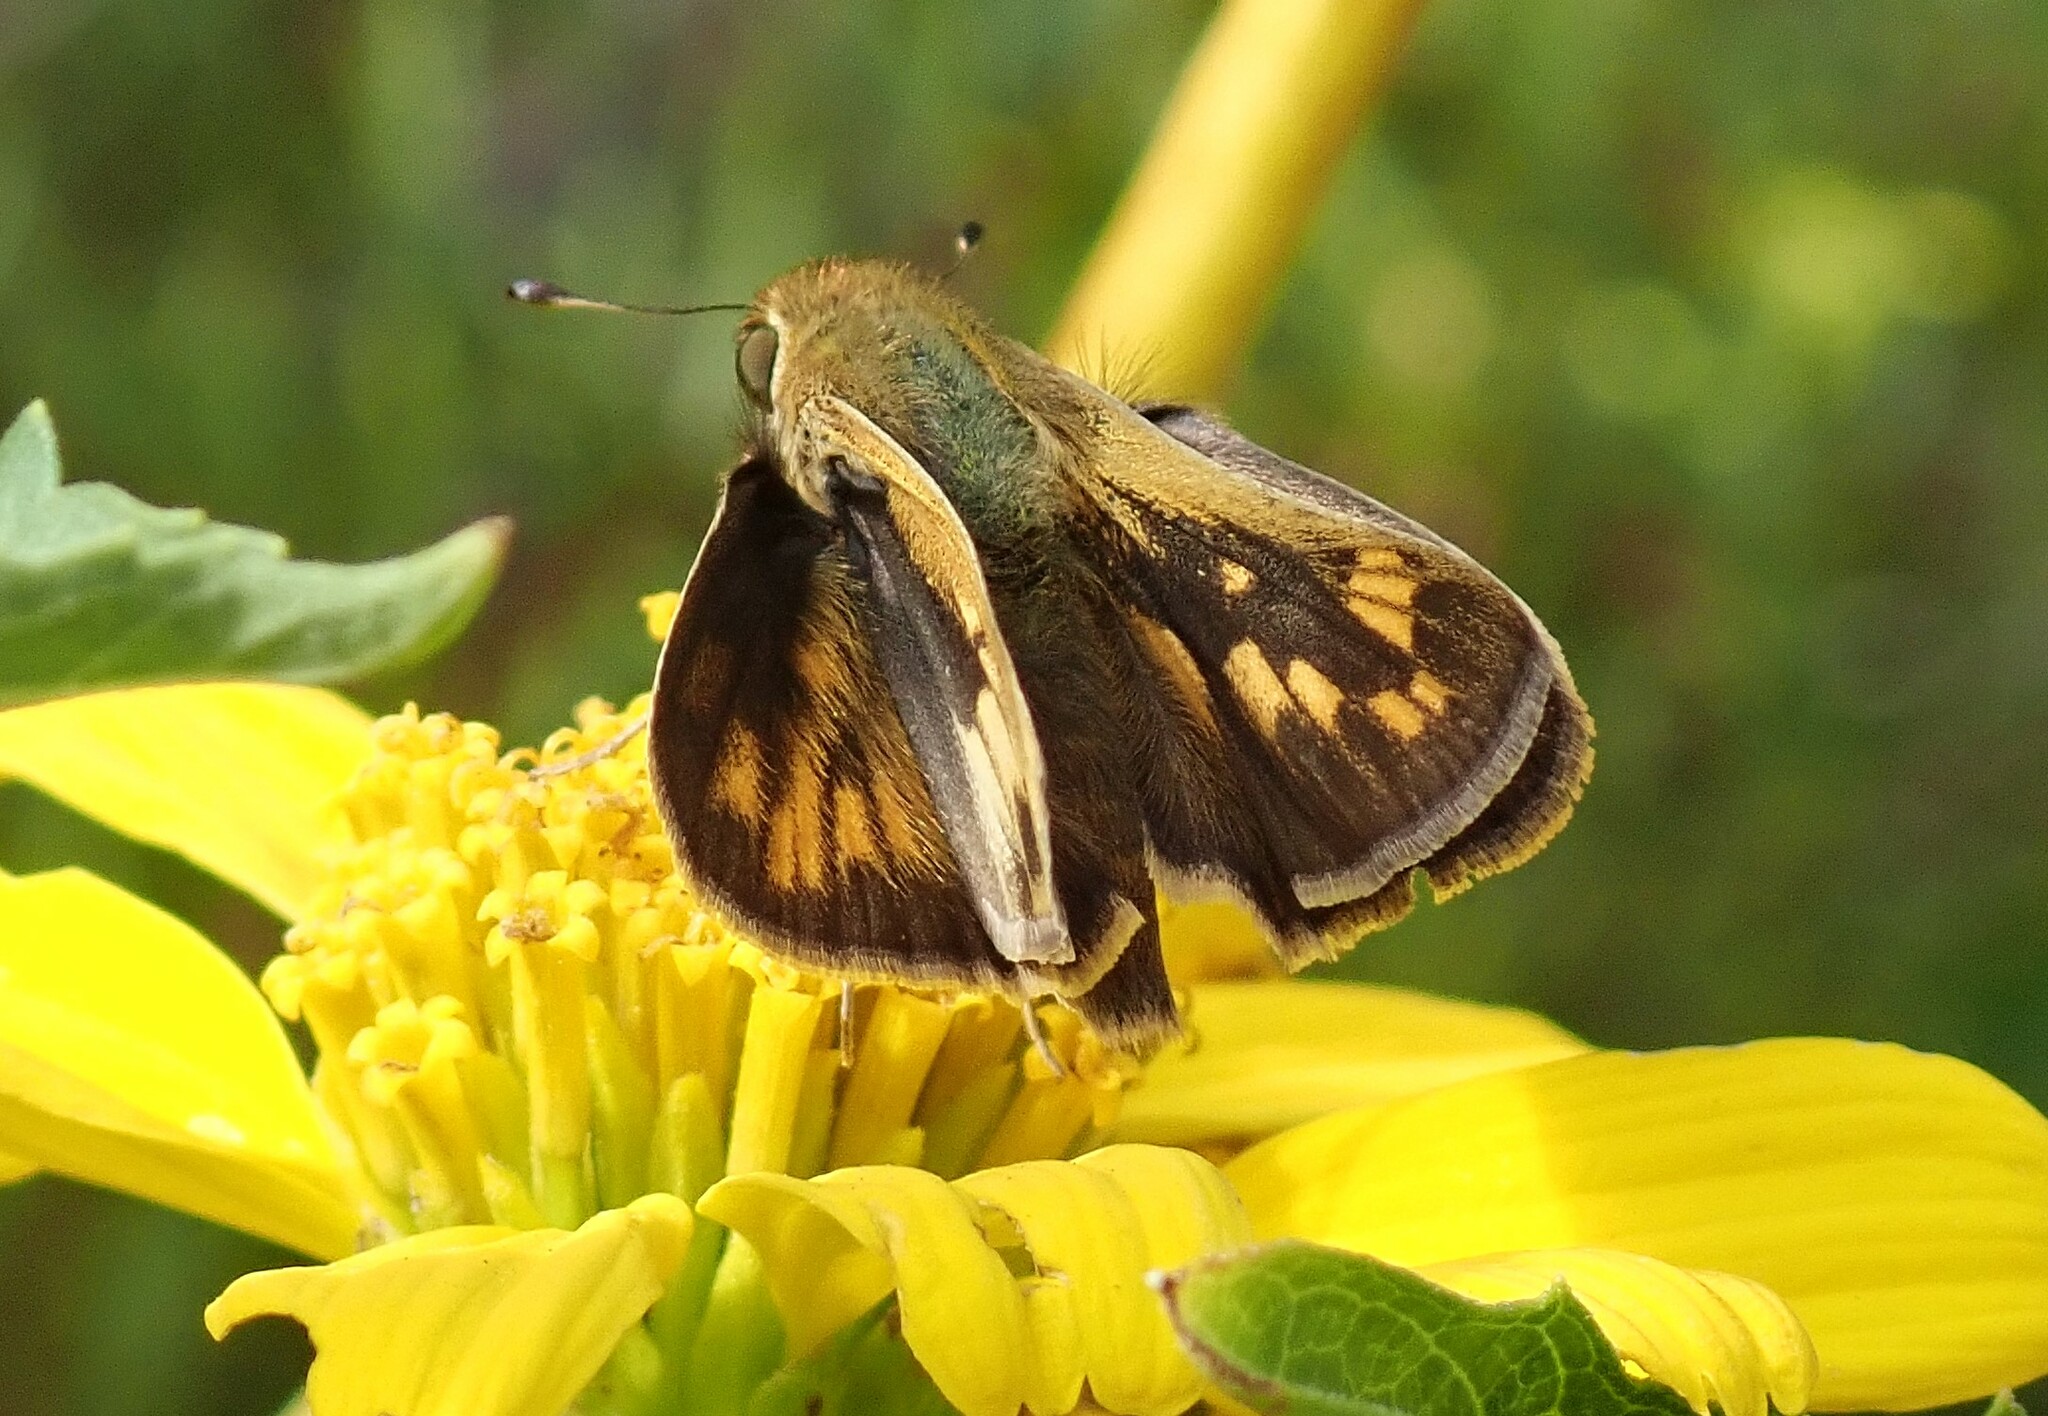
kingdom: Animalia
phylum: Arthropoda
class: Insecta
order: Lepidoptera
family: Hesperiidae
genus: Lon
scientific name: Lon melane
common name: Umber skipper
